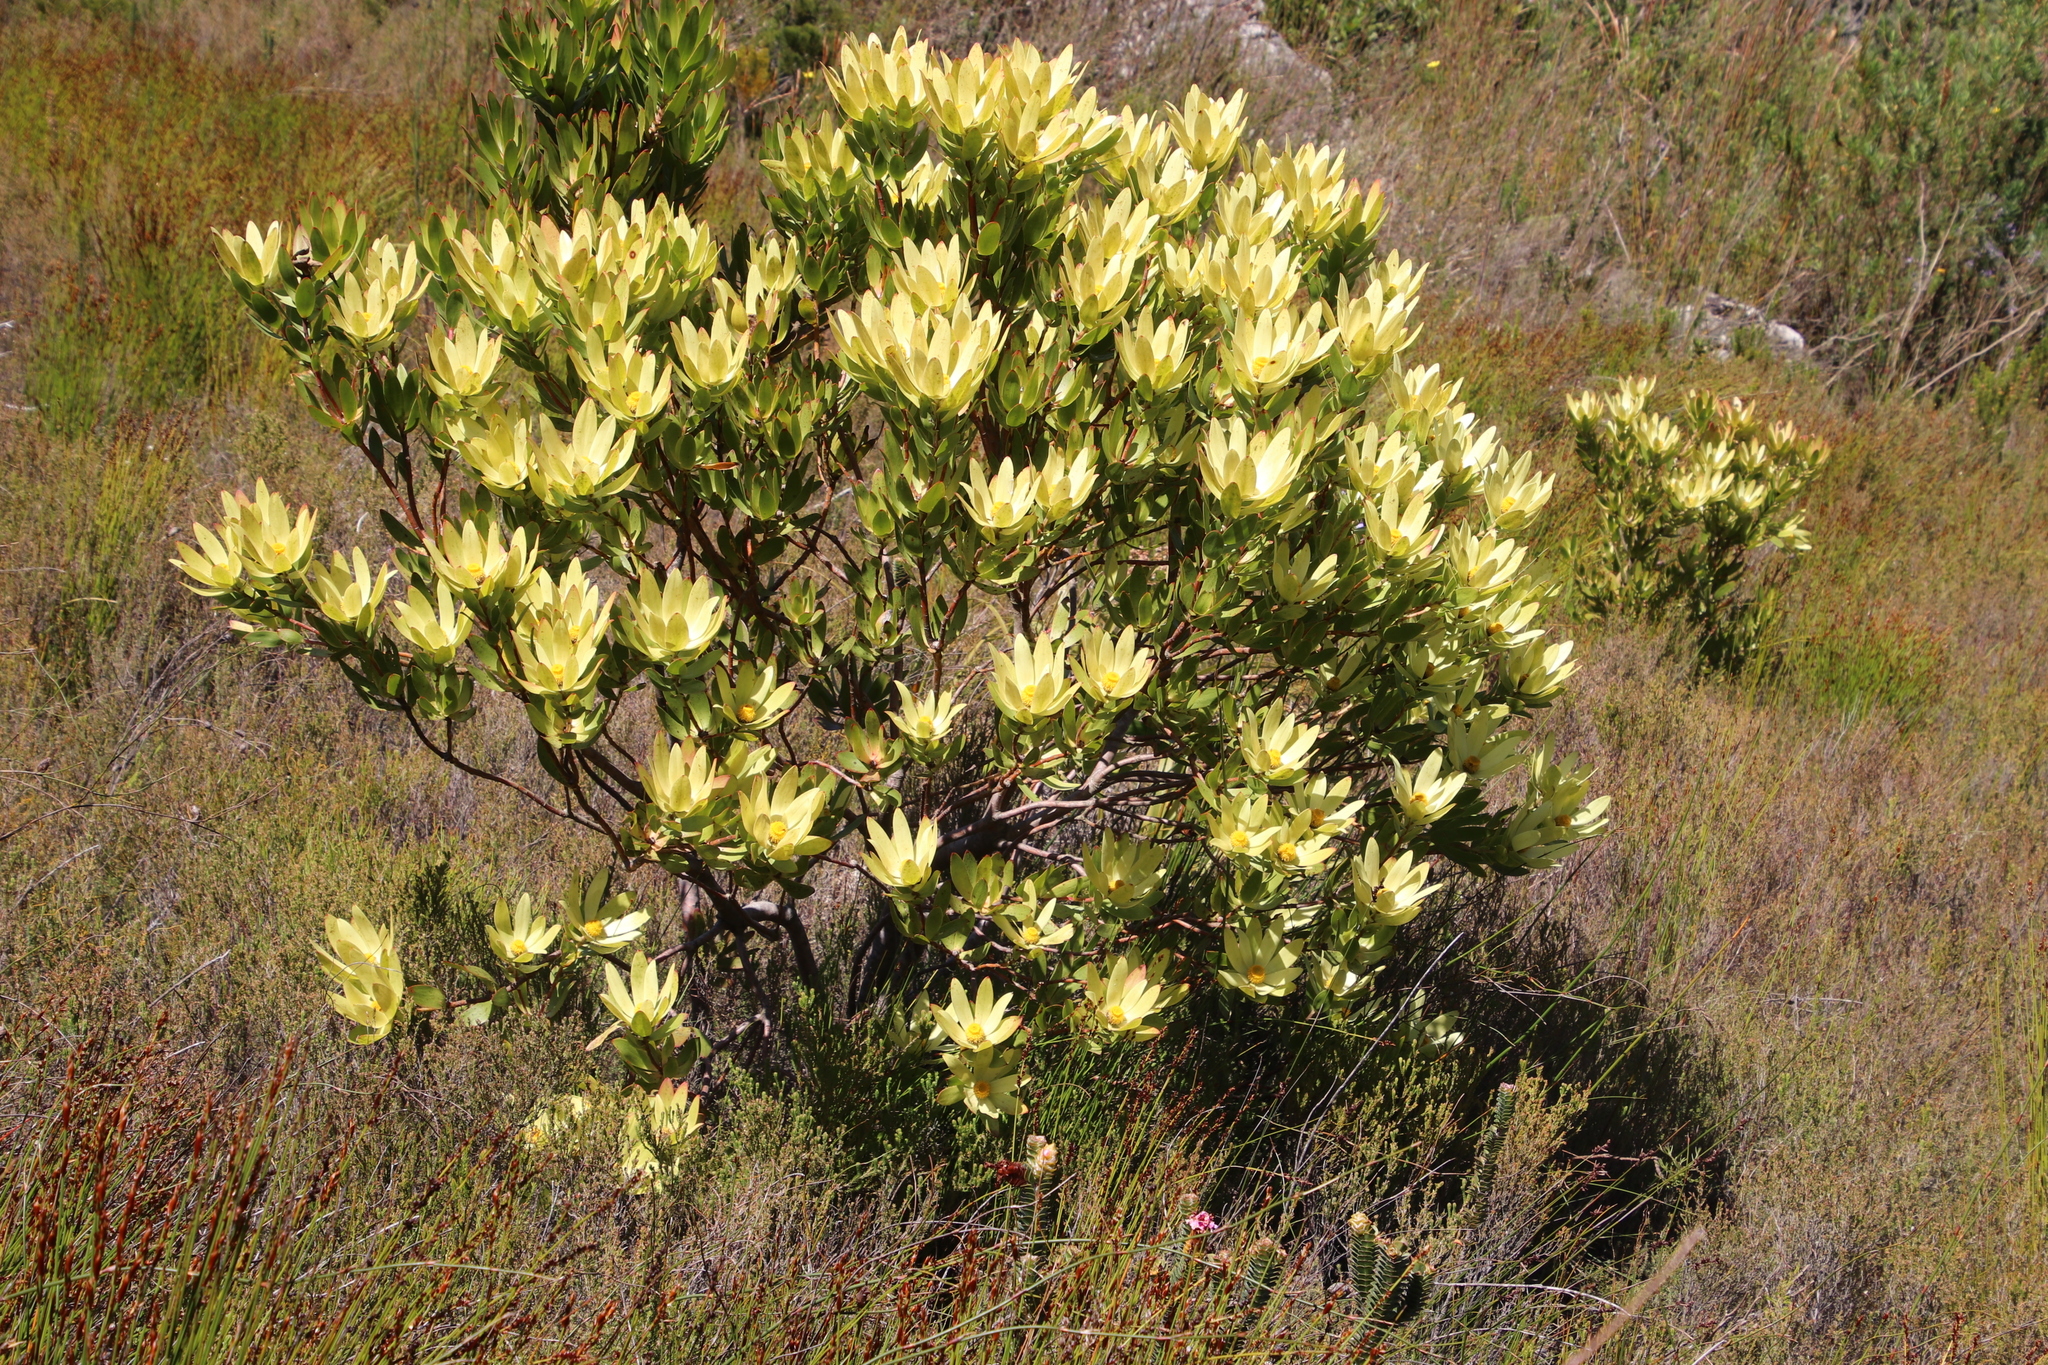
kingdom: Plantae
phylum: Tracheophyta
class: Magnoliopsida
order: Proteales
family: Proteaceae
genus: Leucadendron
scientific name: Leucadendron gandogeri
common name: Broad-leaf conebush
